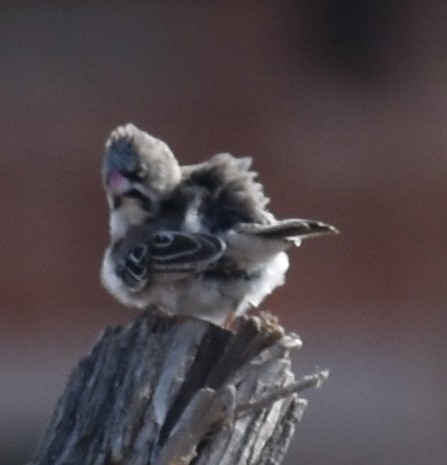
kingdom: Animalia
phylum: Chordata
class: Aves
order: Passeriformes
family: Ploceidae
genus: Sporopipes
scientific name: Sporopipes squamifrons
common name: Scaly-feathered weaver
